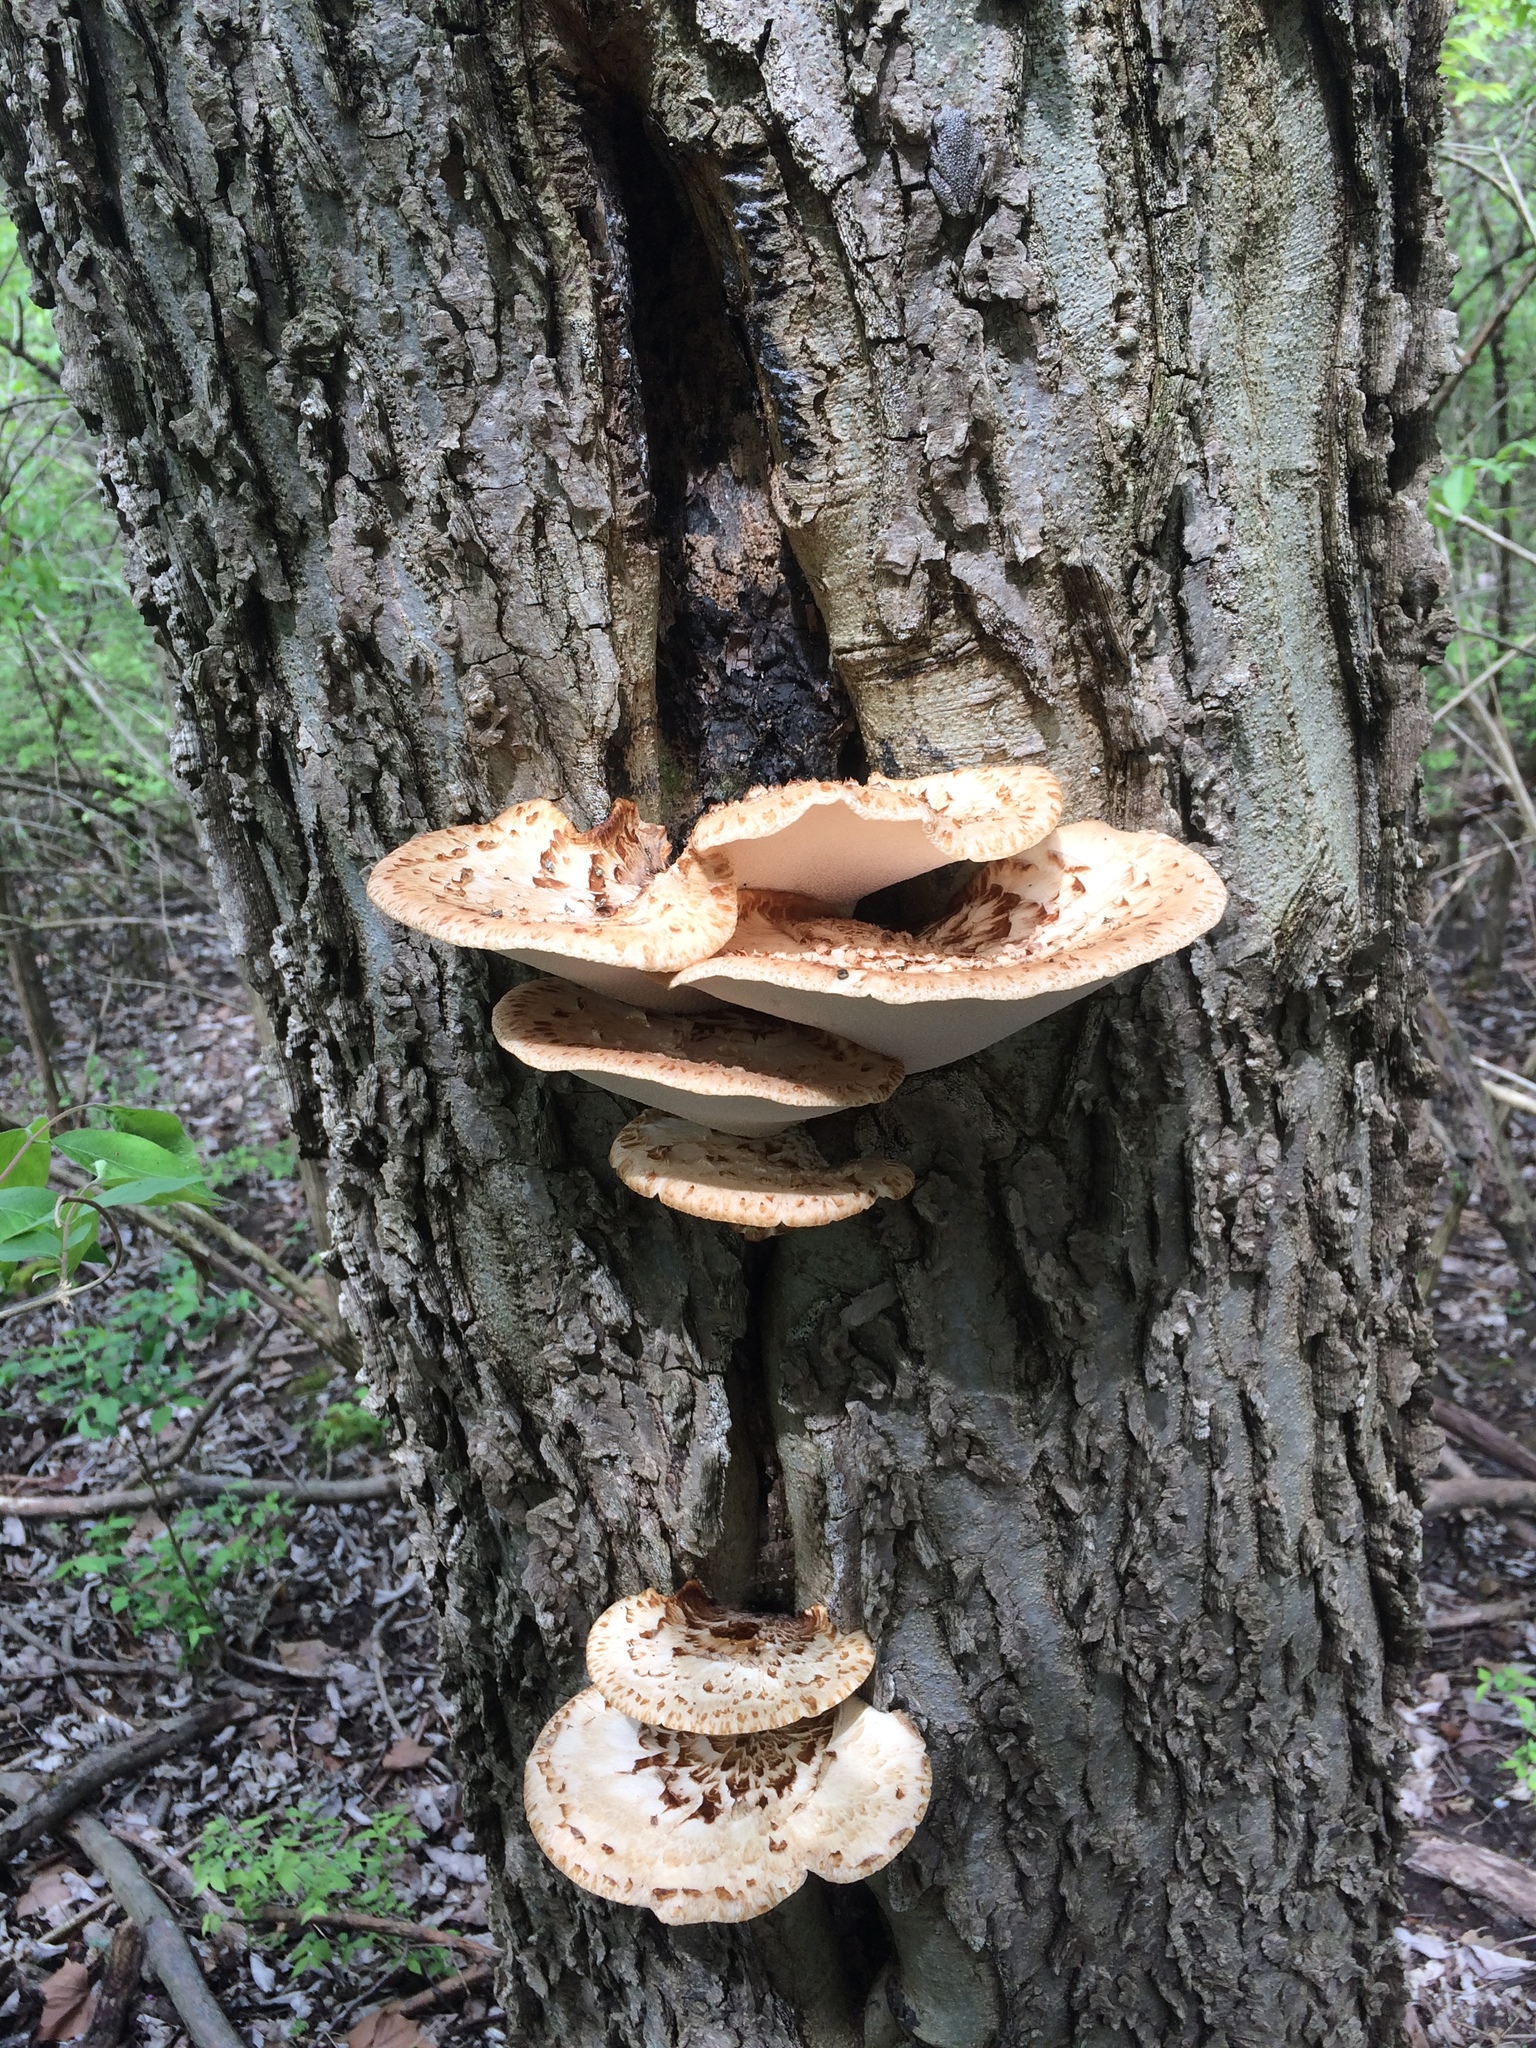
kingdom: Fungi
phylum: Basidiomycota
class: Agaricomycetes
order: Polyporales
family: Polyporaceae
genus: Cerioporus
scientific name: Cerioporus squamosus
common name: Dryad's saddle
